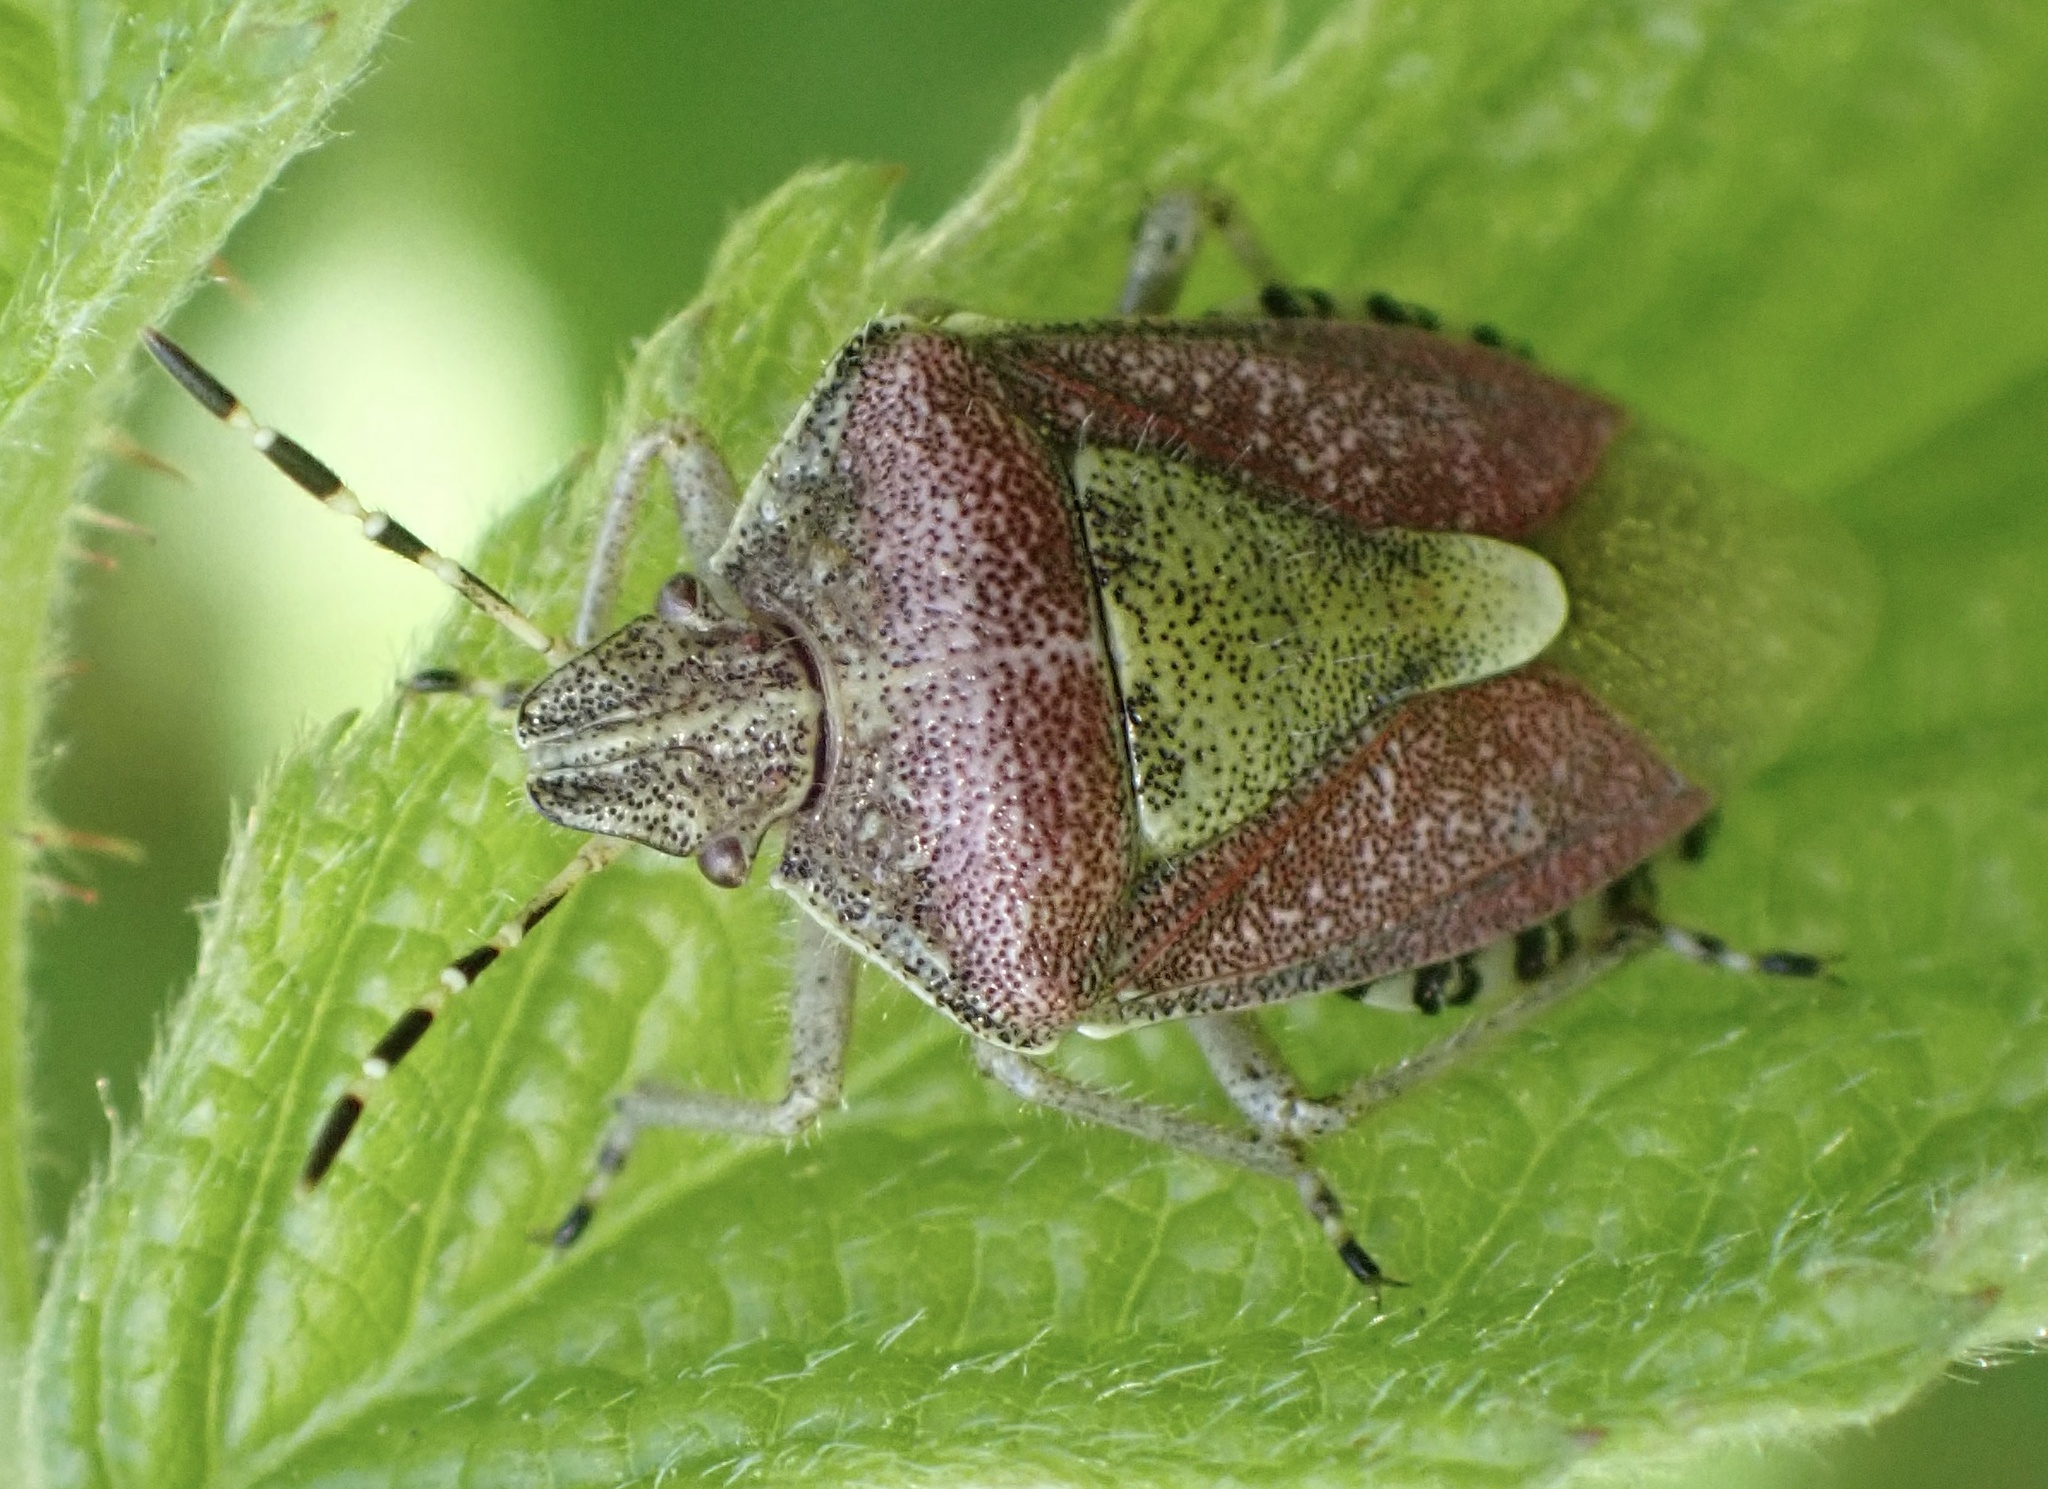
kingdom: Animalia
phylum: Arthropoda
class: Insecta
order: Hemiptera
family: Pentatomidae
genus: Dolycoris
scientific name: Dolycoris baccarum
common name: Sloe bug
